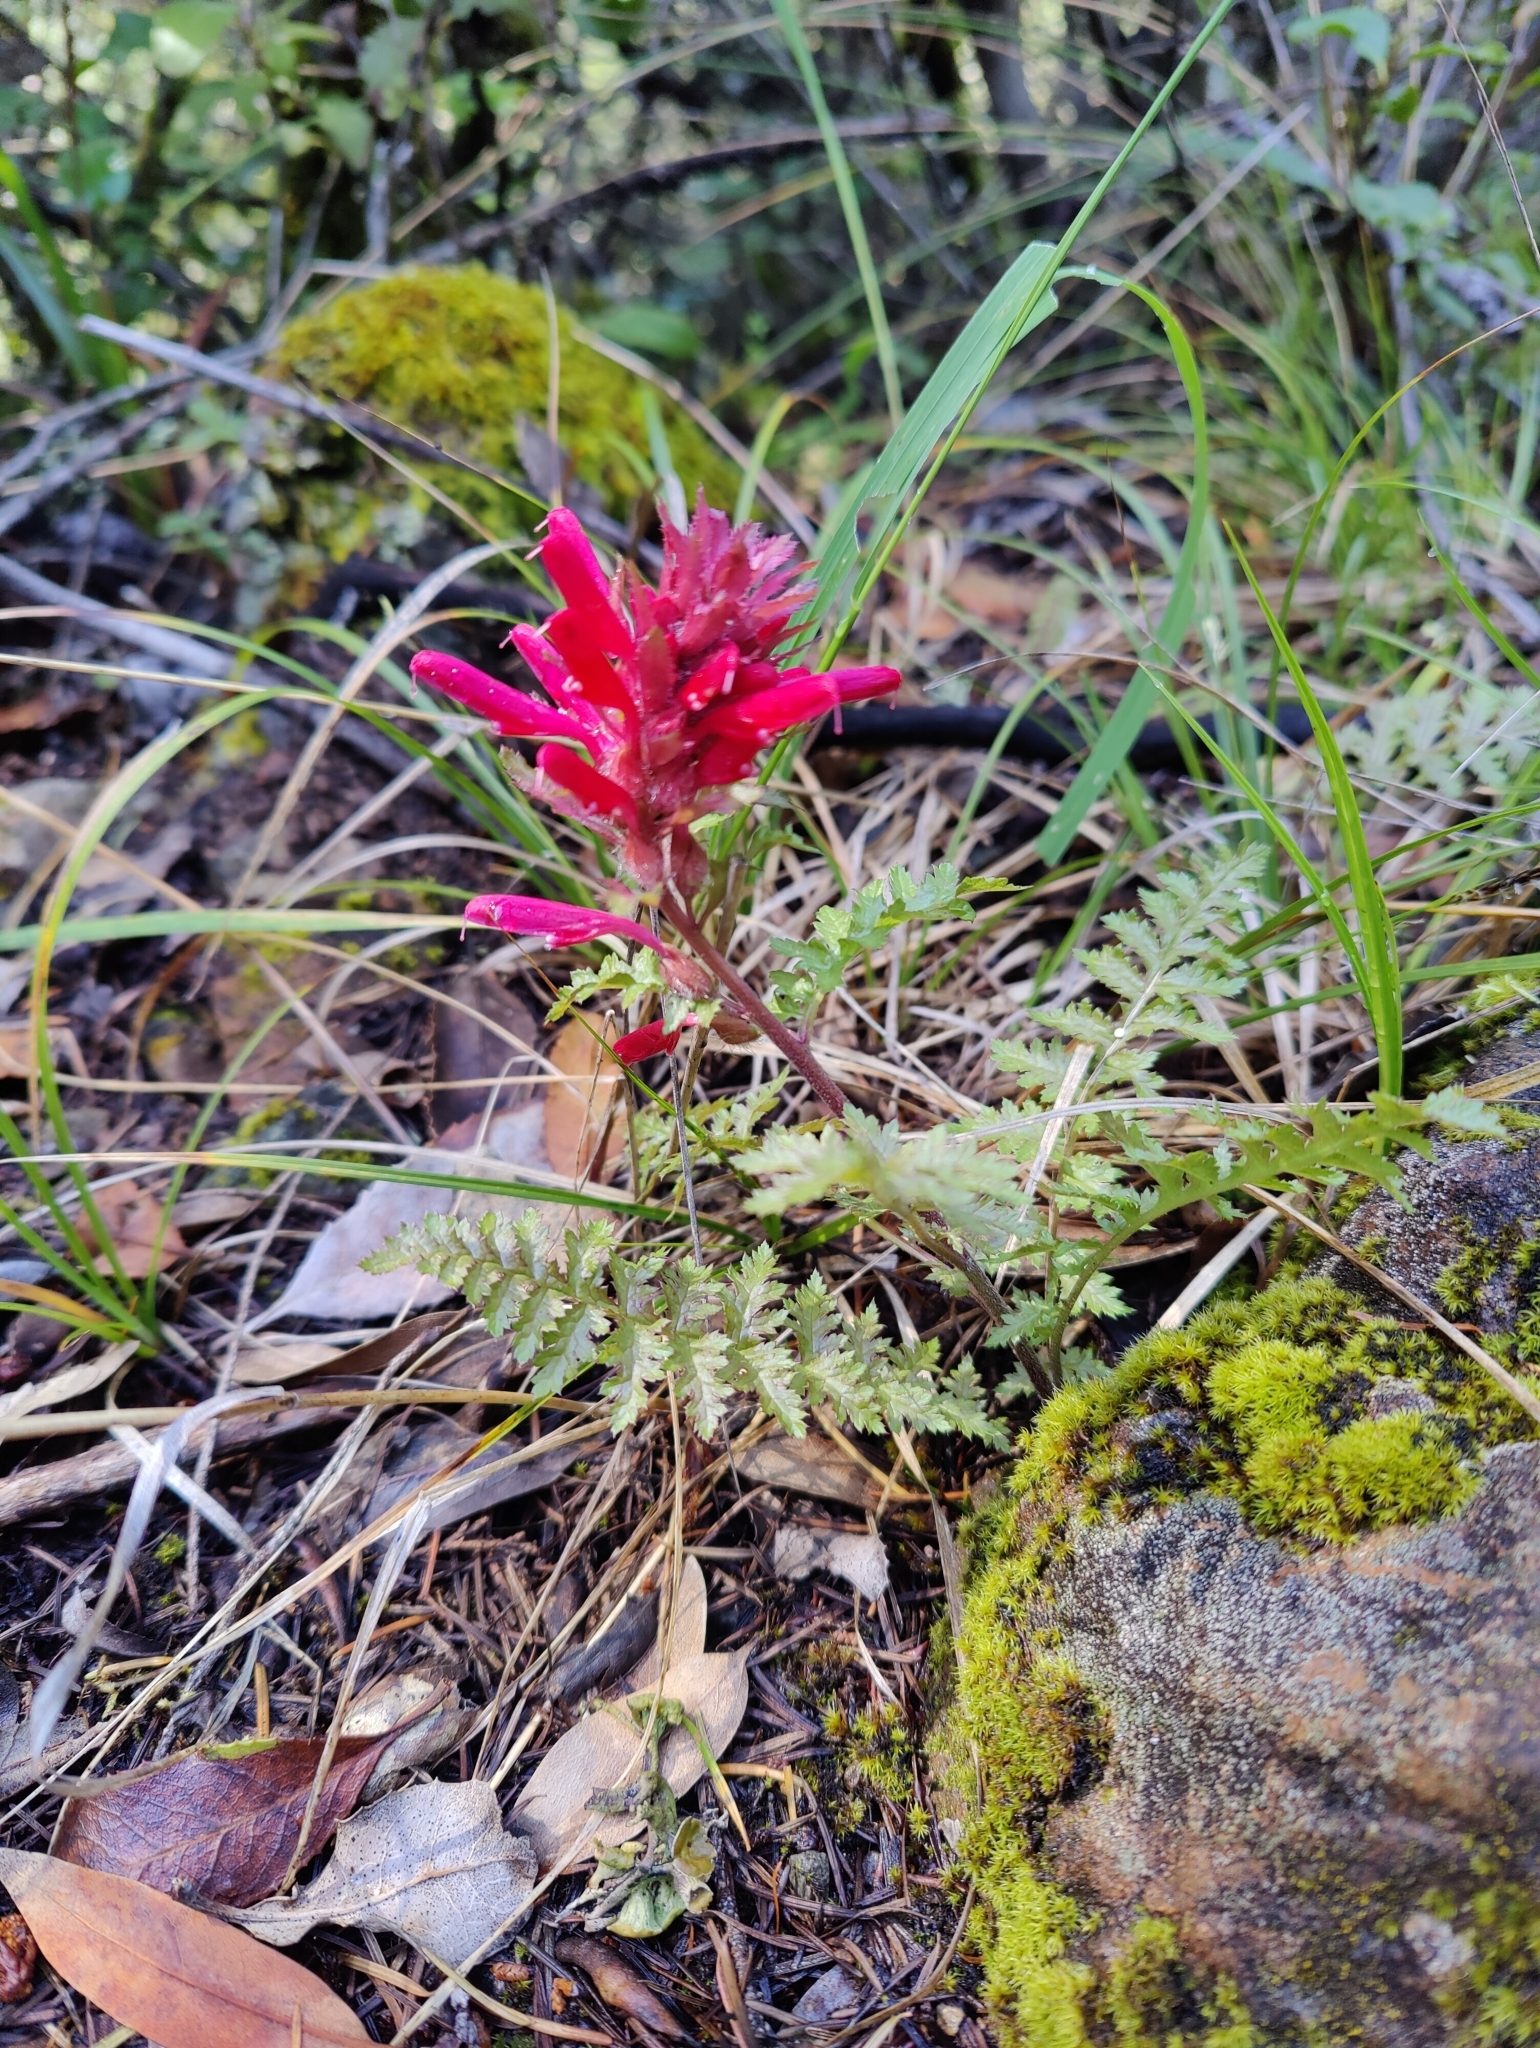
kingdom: Plantae
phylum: Tracheophyta
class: Magnoliopsida
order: Lamiales
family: Orobanchaceae
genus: Pedicularis
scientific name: Pedicularis densiflora
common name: Indian warrior
